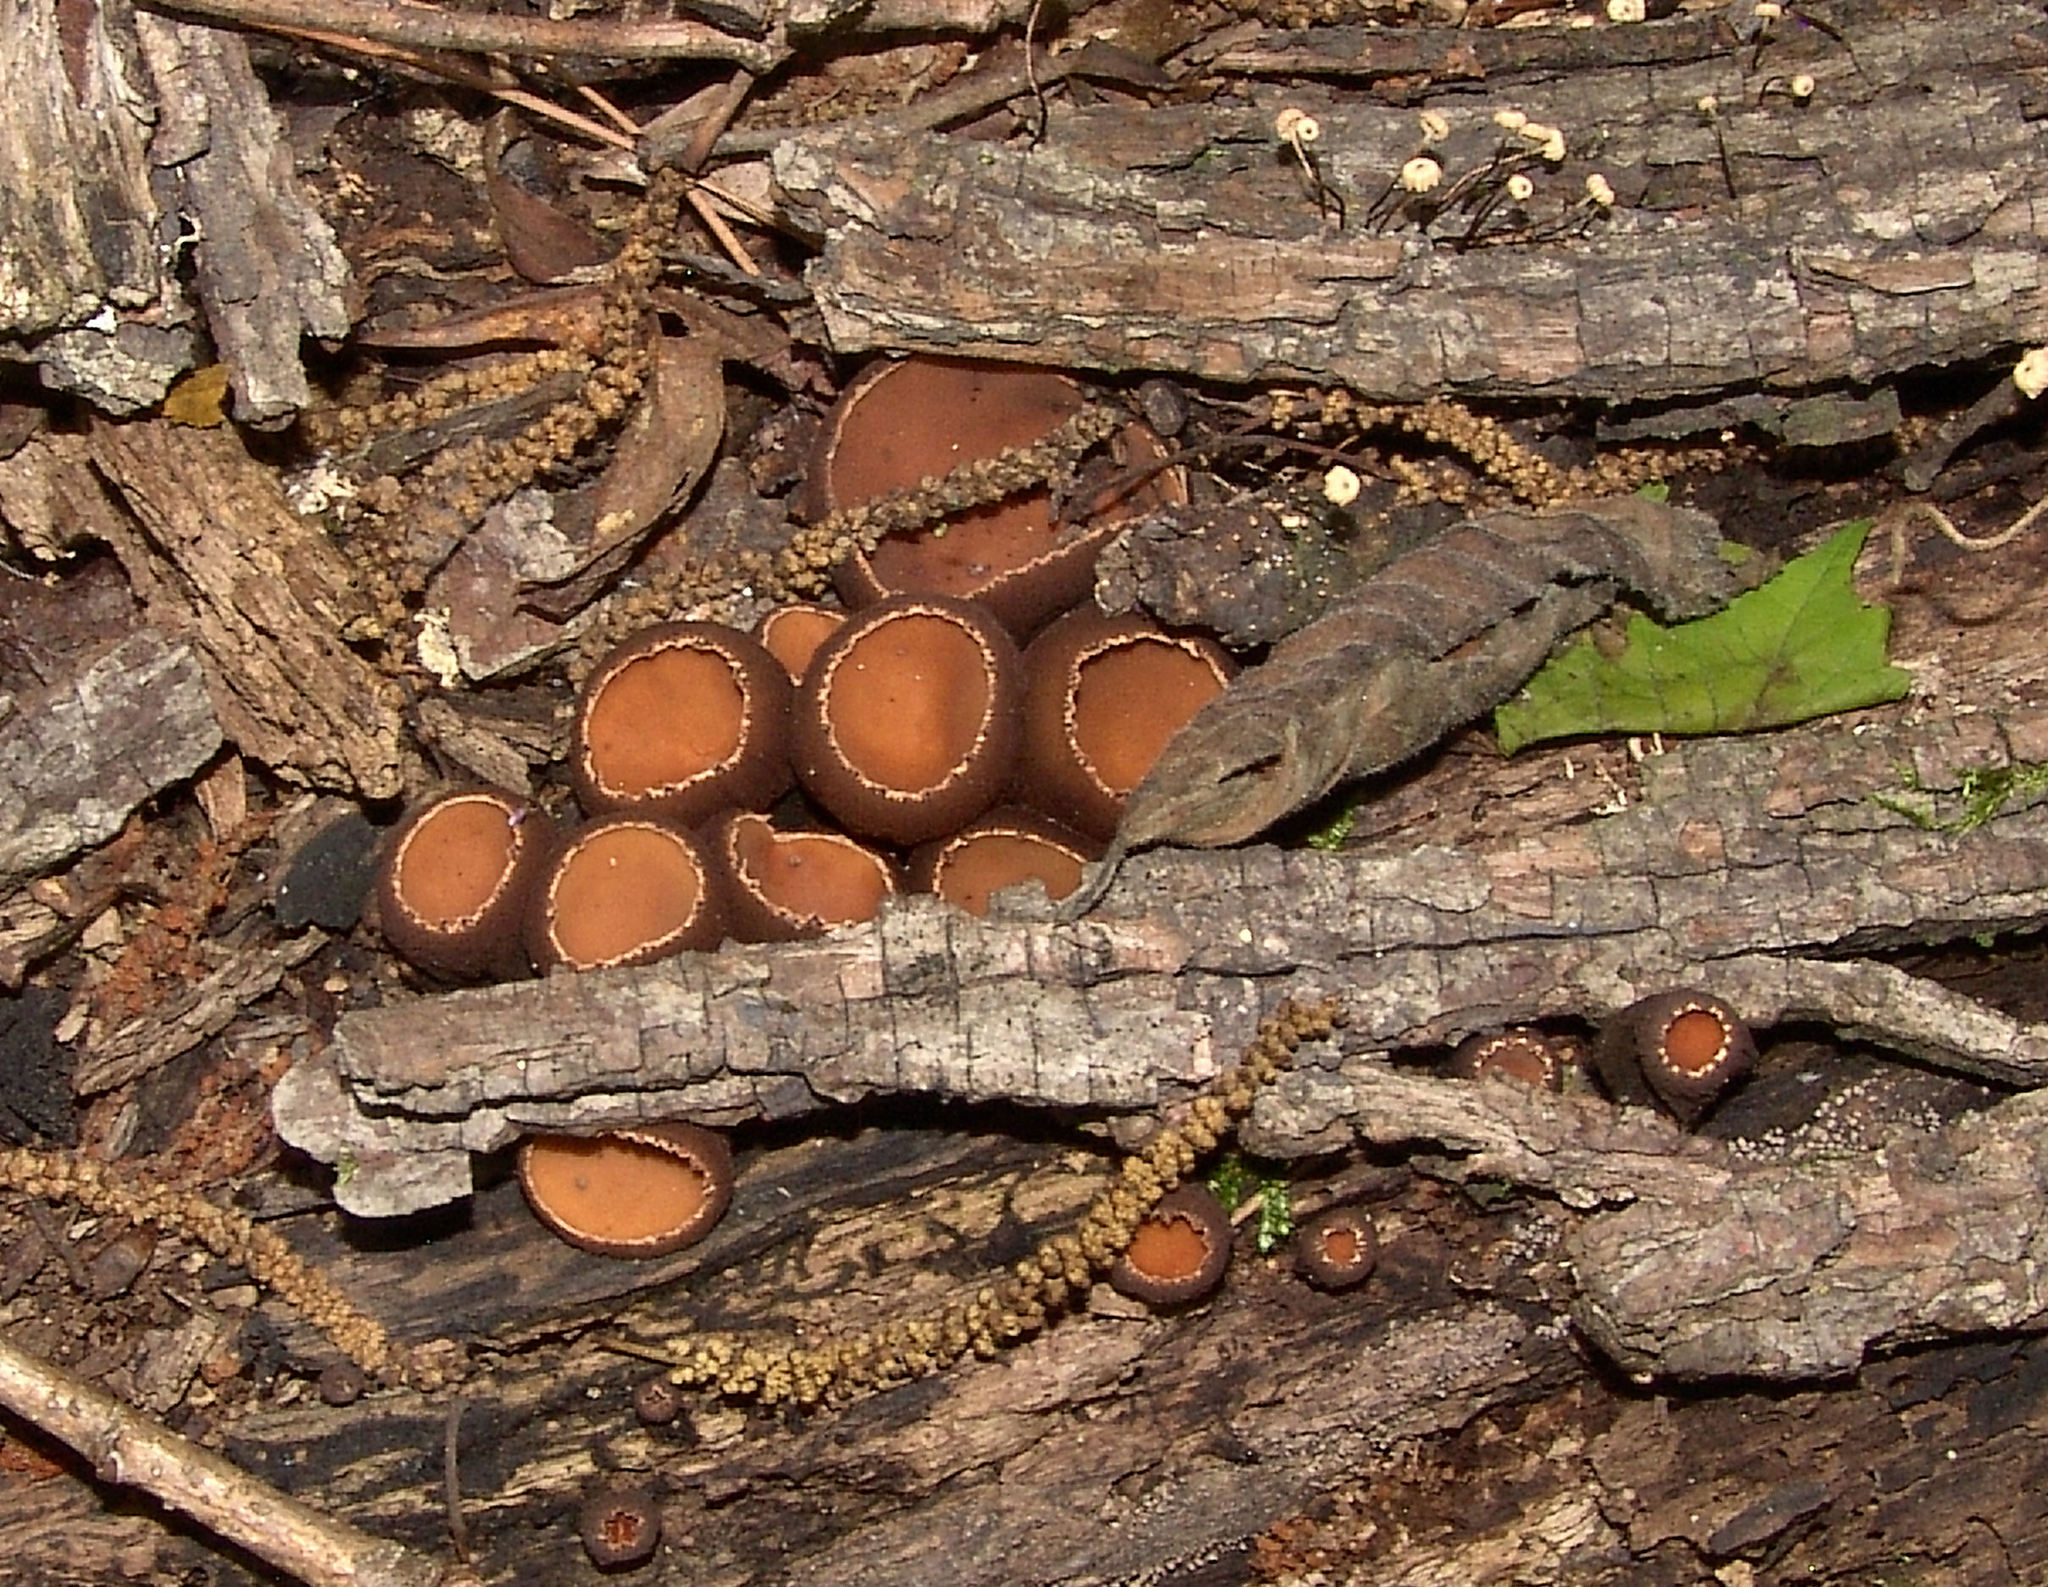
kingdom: Fungi
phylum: Ascomycota
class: Pezizomycetes
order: Pezizales
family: Sarcosomataceae
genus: Galiella
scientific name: Galiella rufa
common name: Hairy rubber cup
